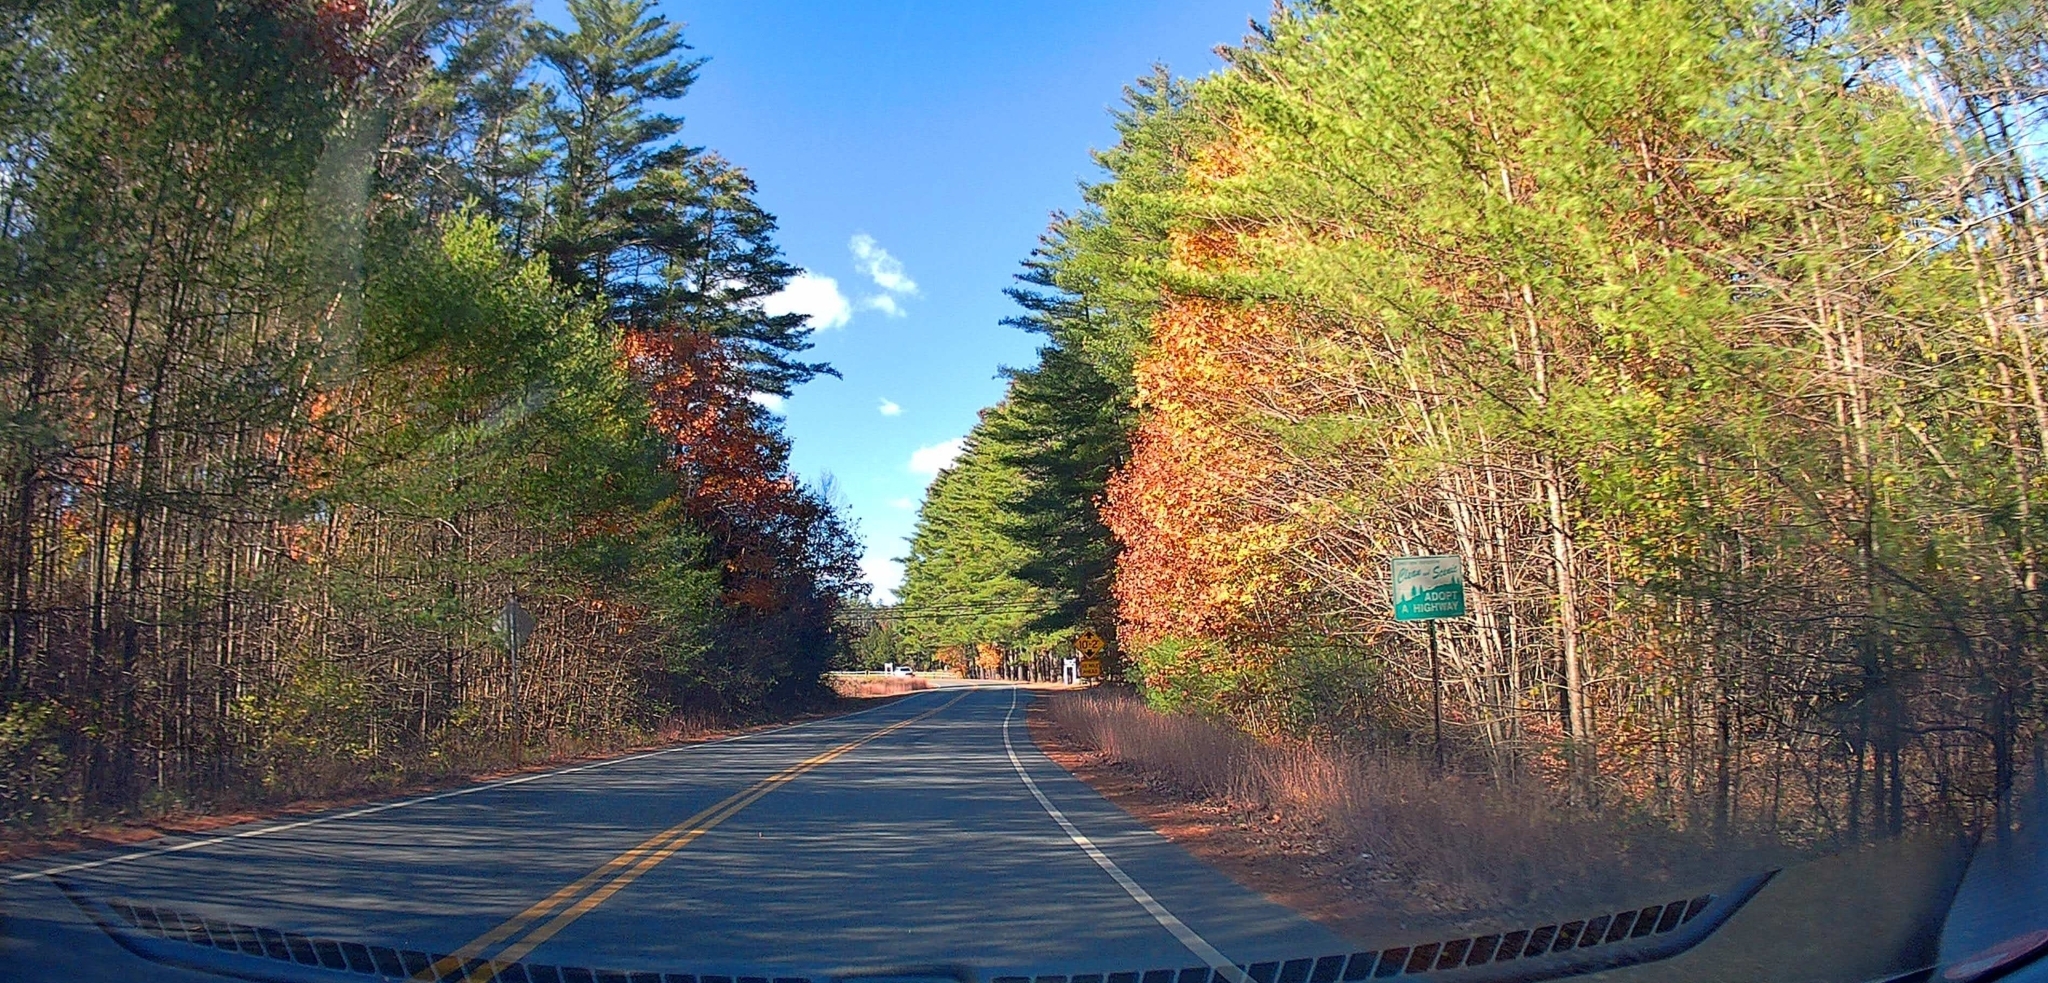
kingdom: Plantae
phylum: Tracheophyta
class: Pinopsida
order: Pinales
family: Pinaceae
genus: Pinus
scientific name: Pinus strobus
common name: Weymouth pine
